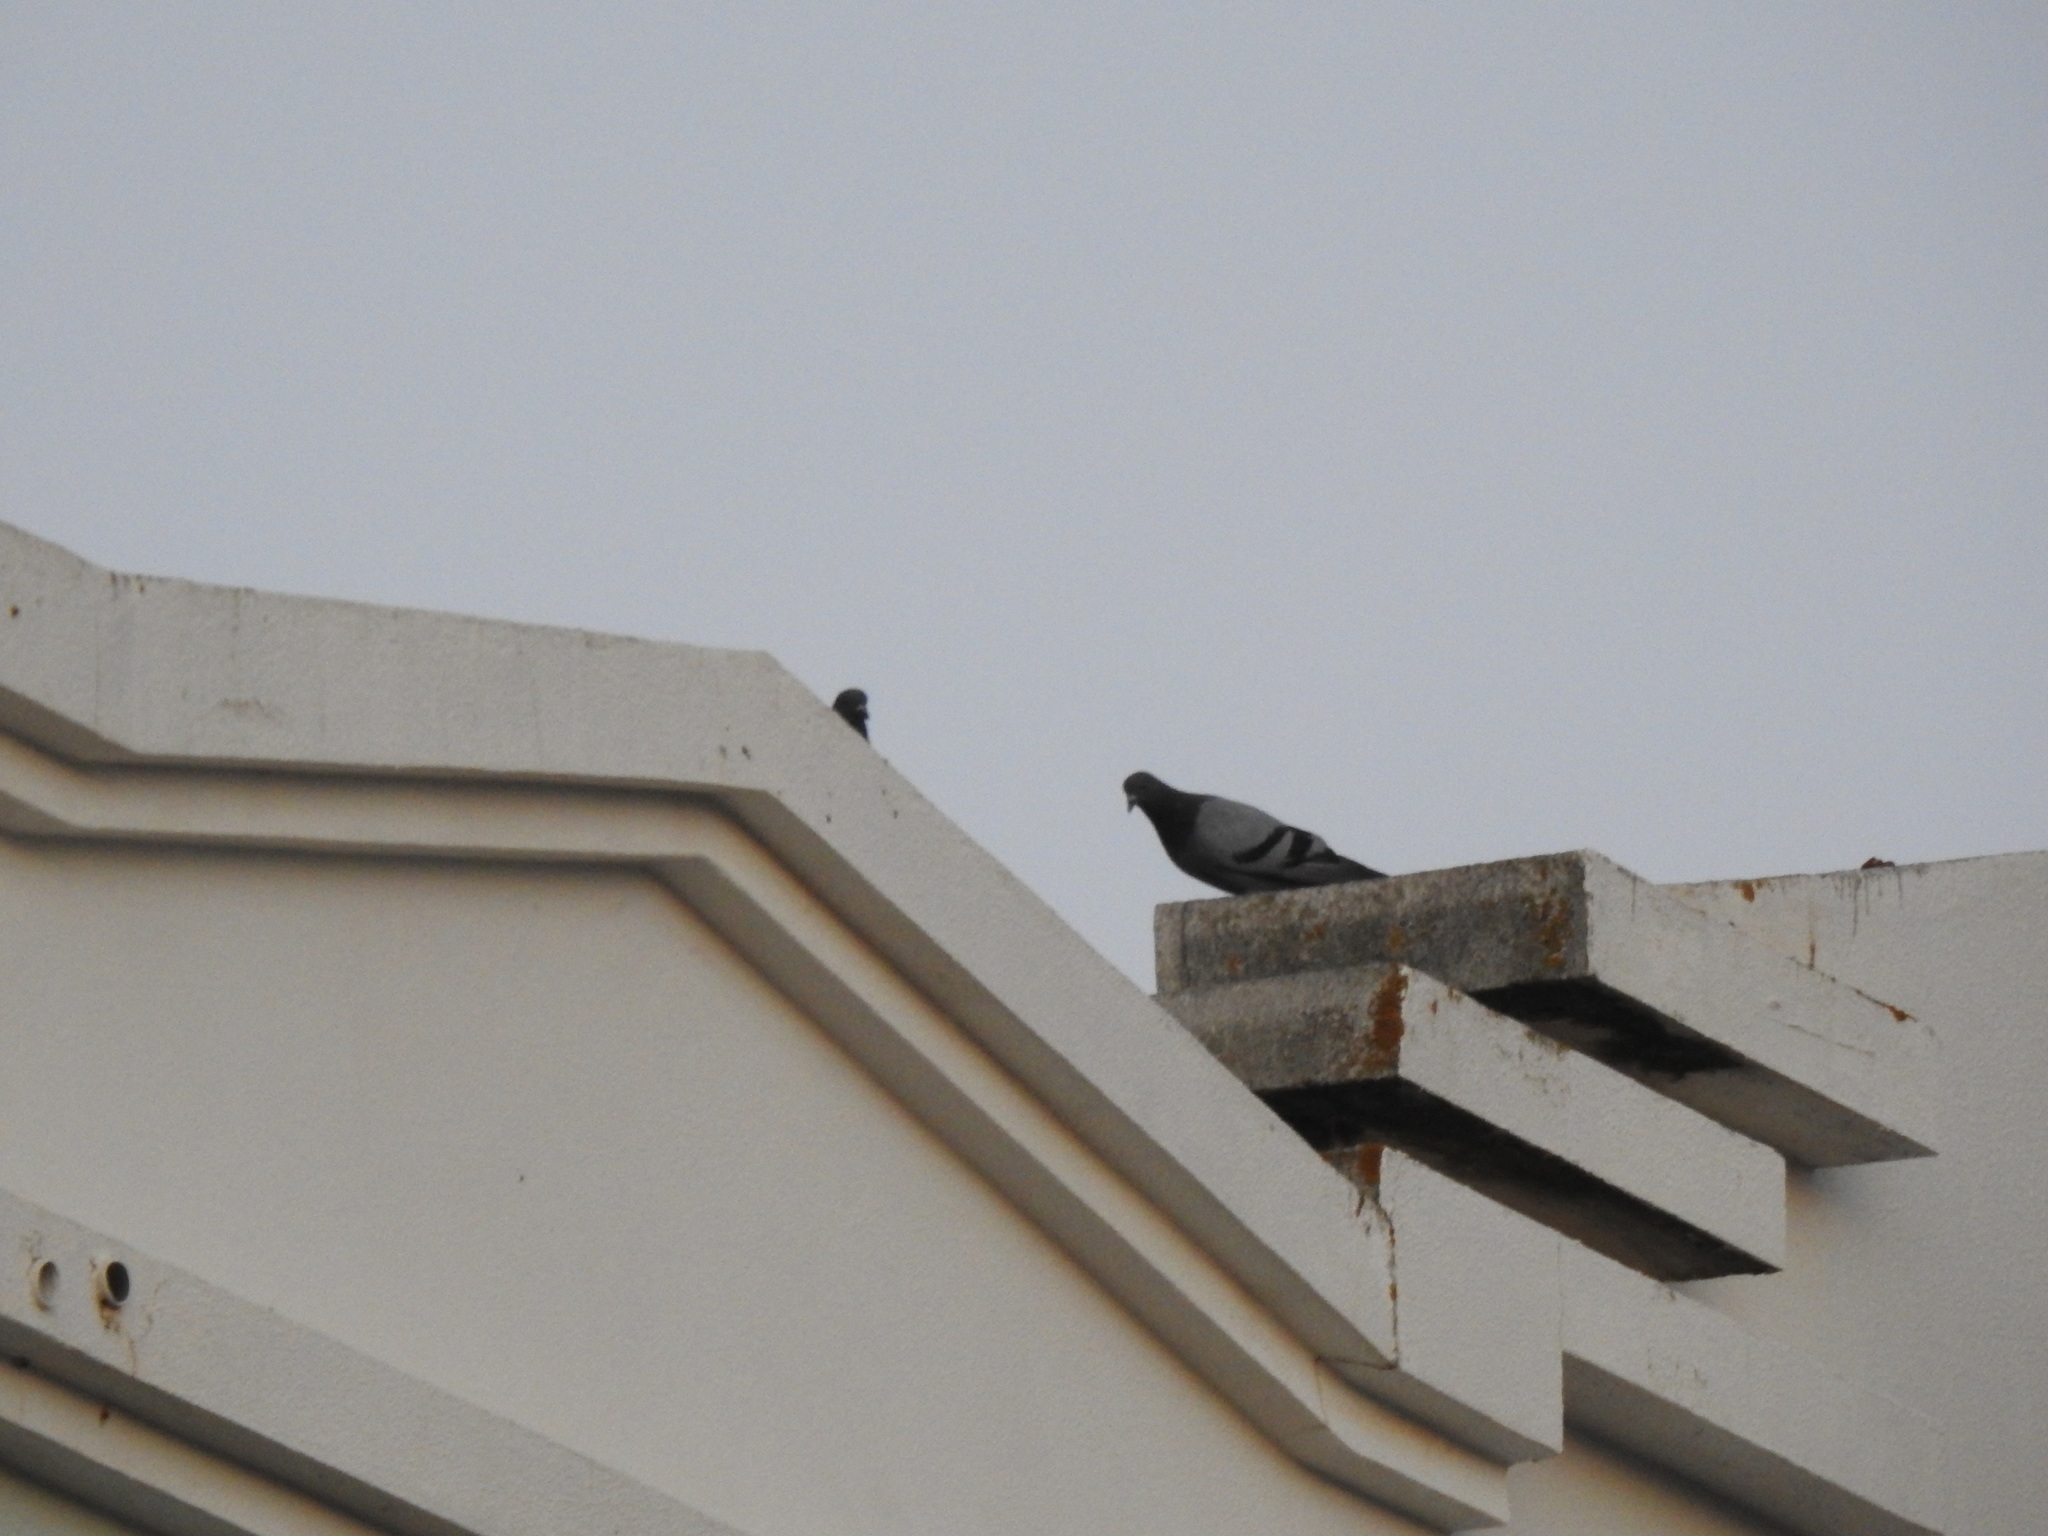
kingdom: Animalia
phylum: Chordata
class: Aves
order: Columbiformes
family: Columbidae
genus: Columba
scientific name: Columba livia
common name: Rock pigeon
